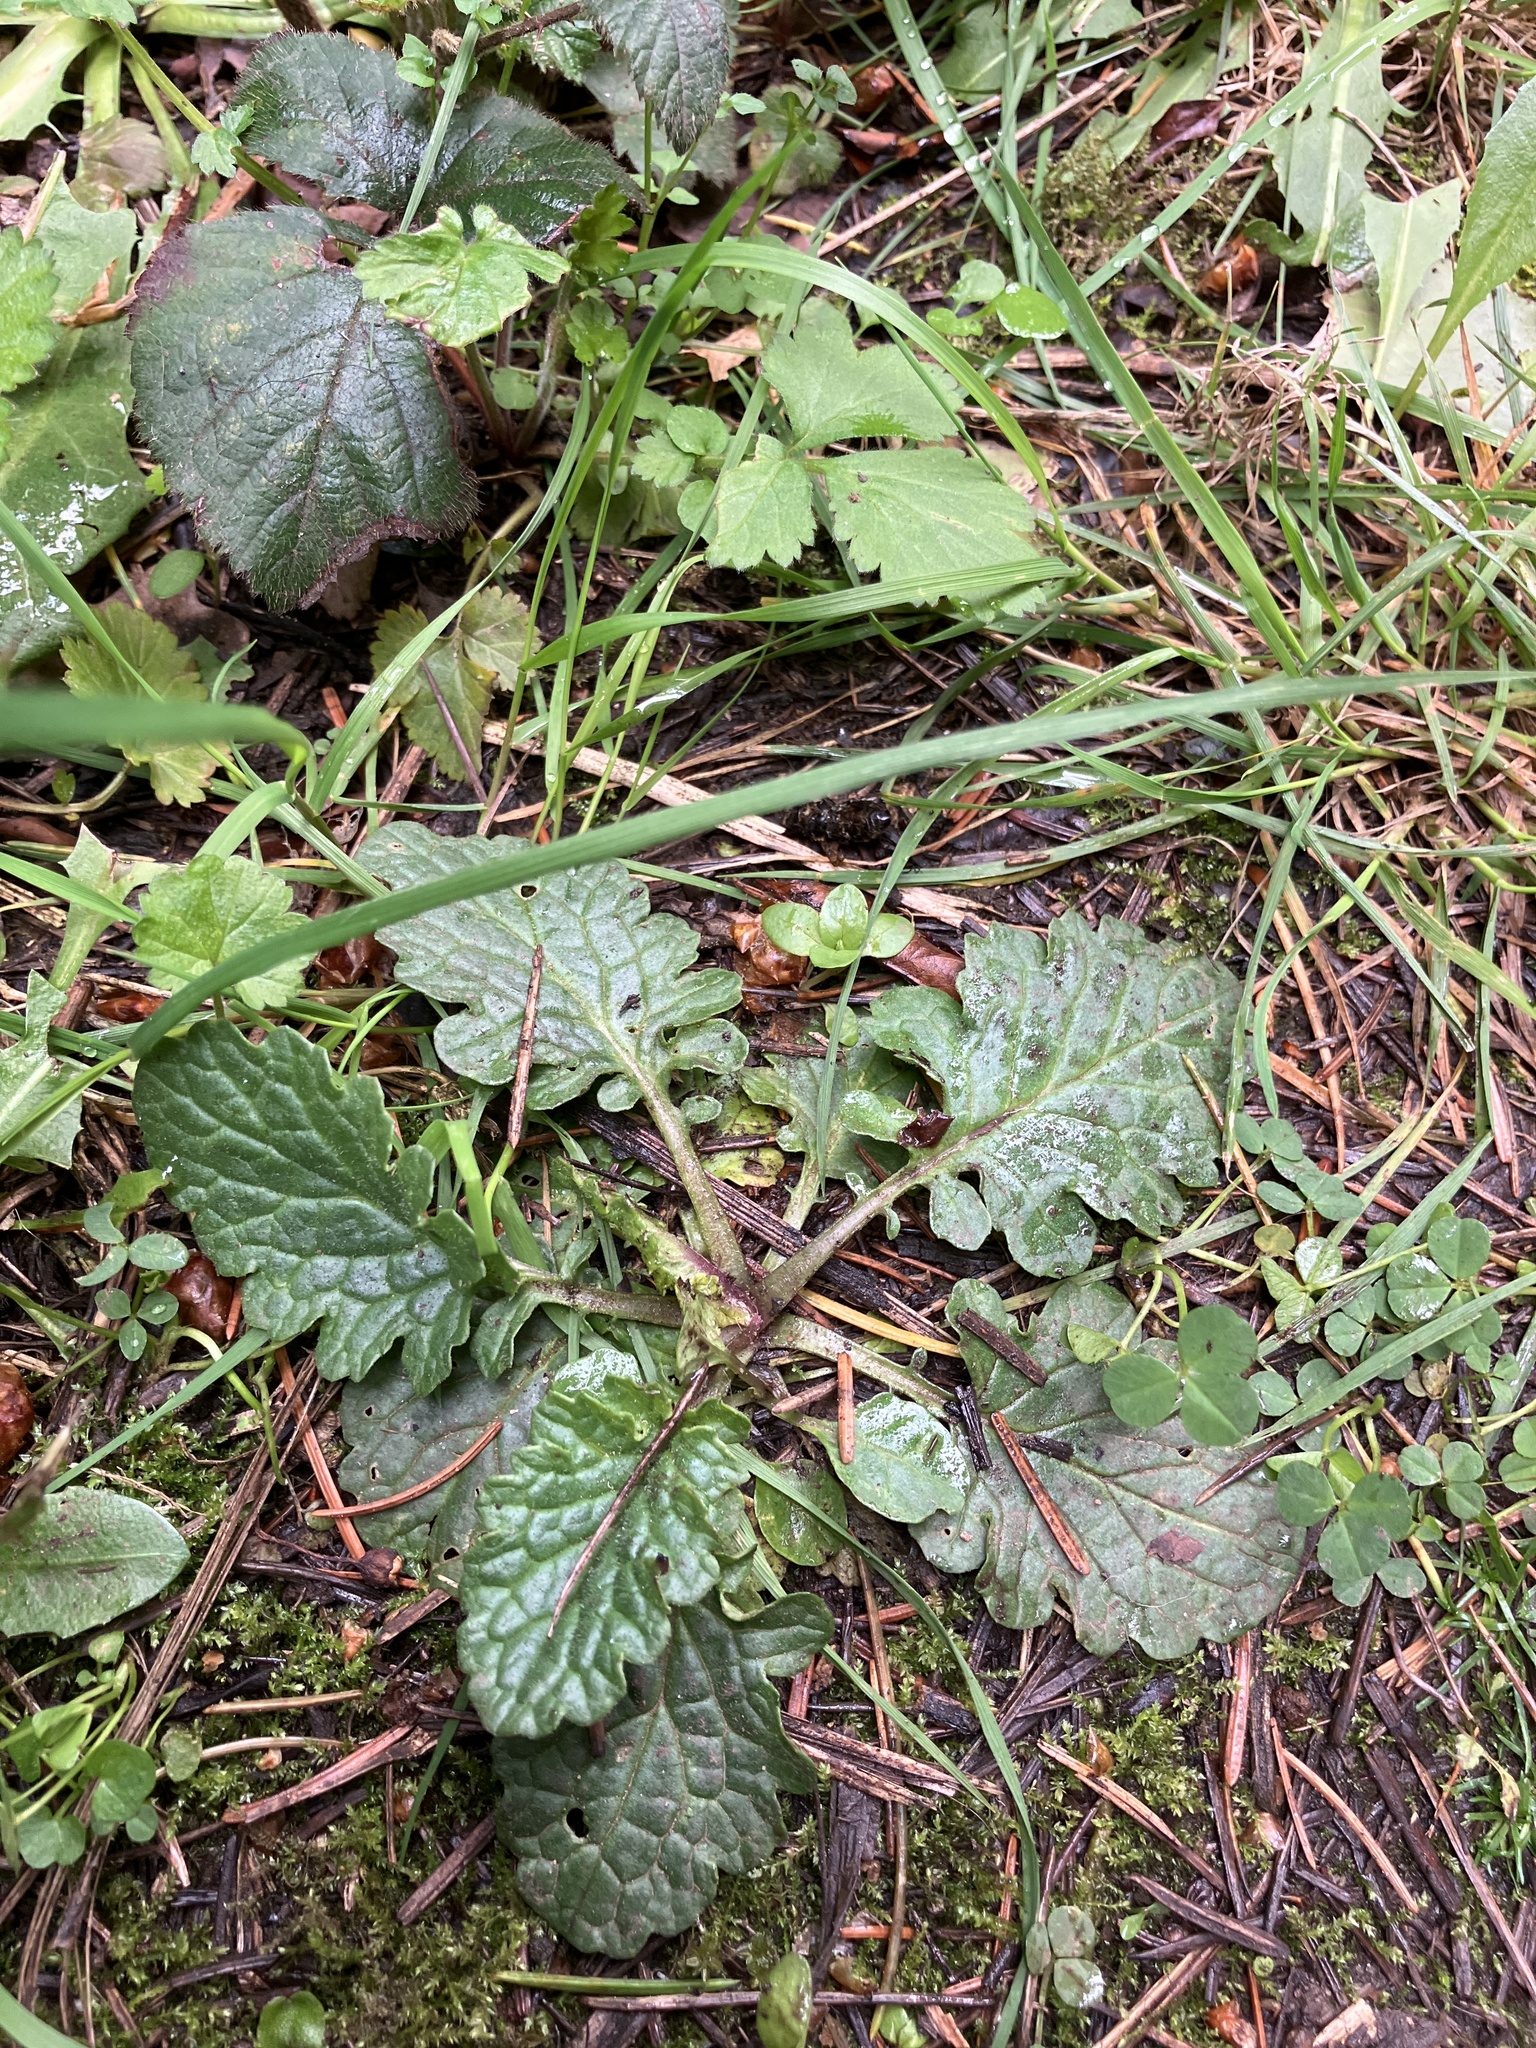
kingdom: Plantae
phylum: Tracheophyta
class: Magnoliopsida
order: Asterales
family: Asteraceae
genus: Jacobaea
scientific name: Jacobaea vulgaris
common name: Stinking willie
